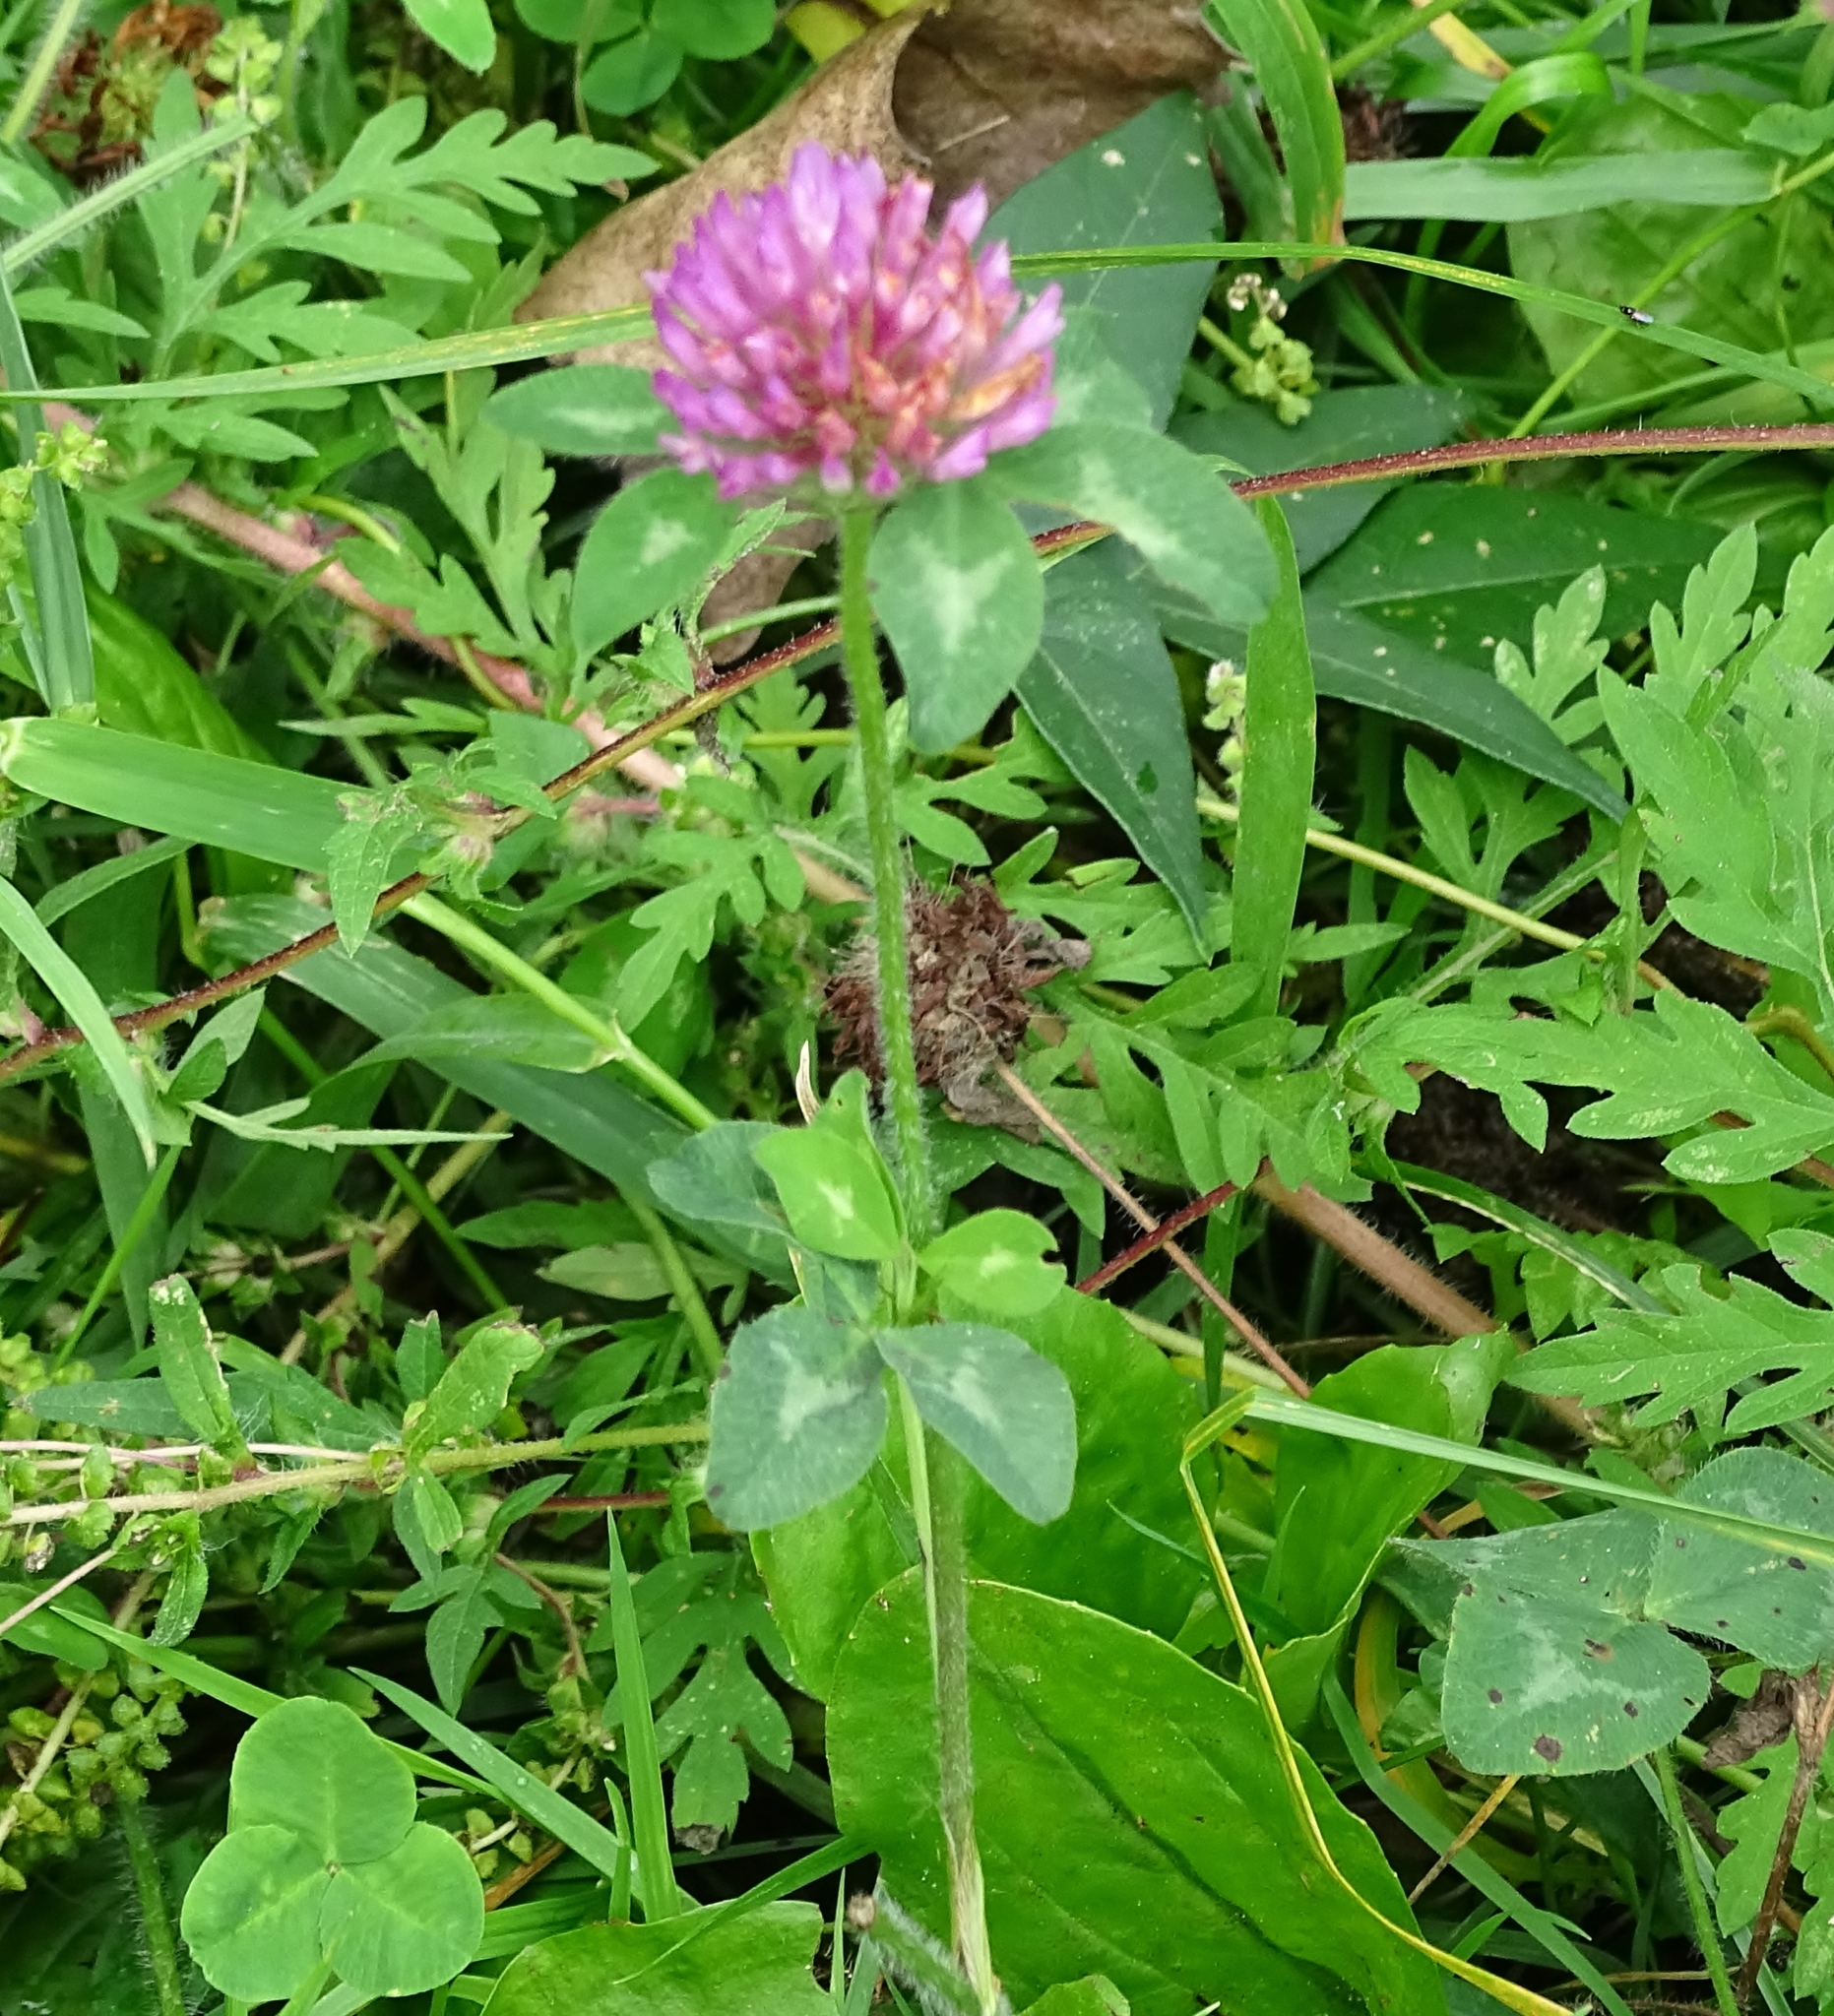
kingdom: Plantae
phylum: Tracheophyta
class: Magnoliopsida
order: Fabales
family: Fabaceae
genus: Trifolium
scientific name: Trifolium pratense
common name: Red clover
